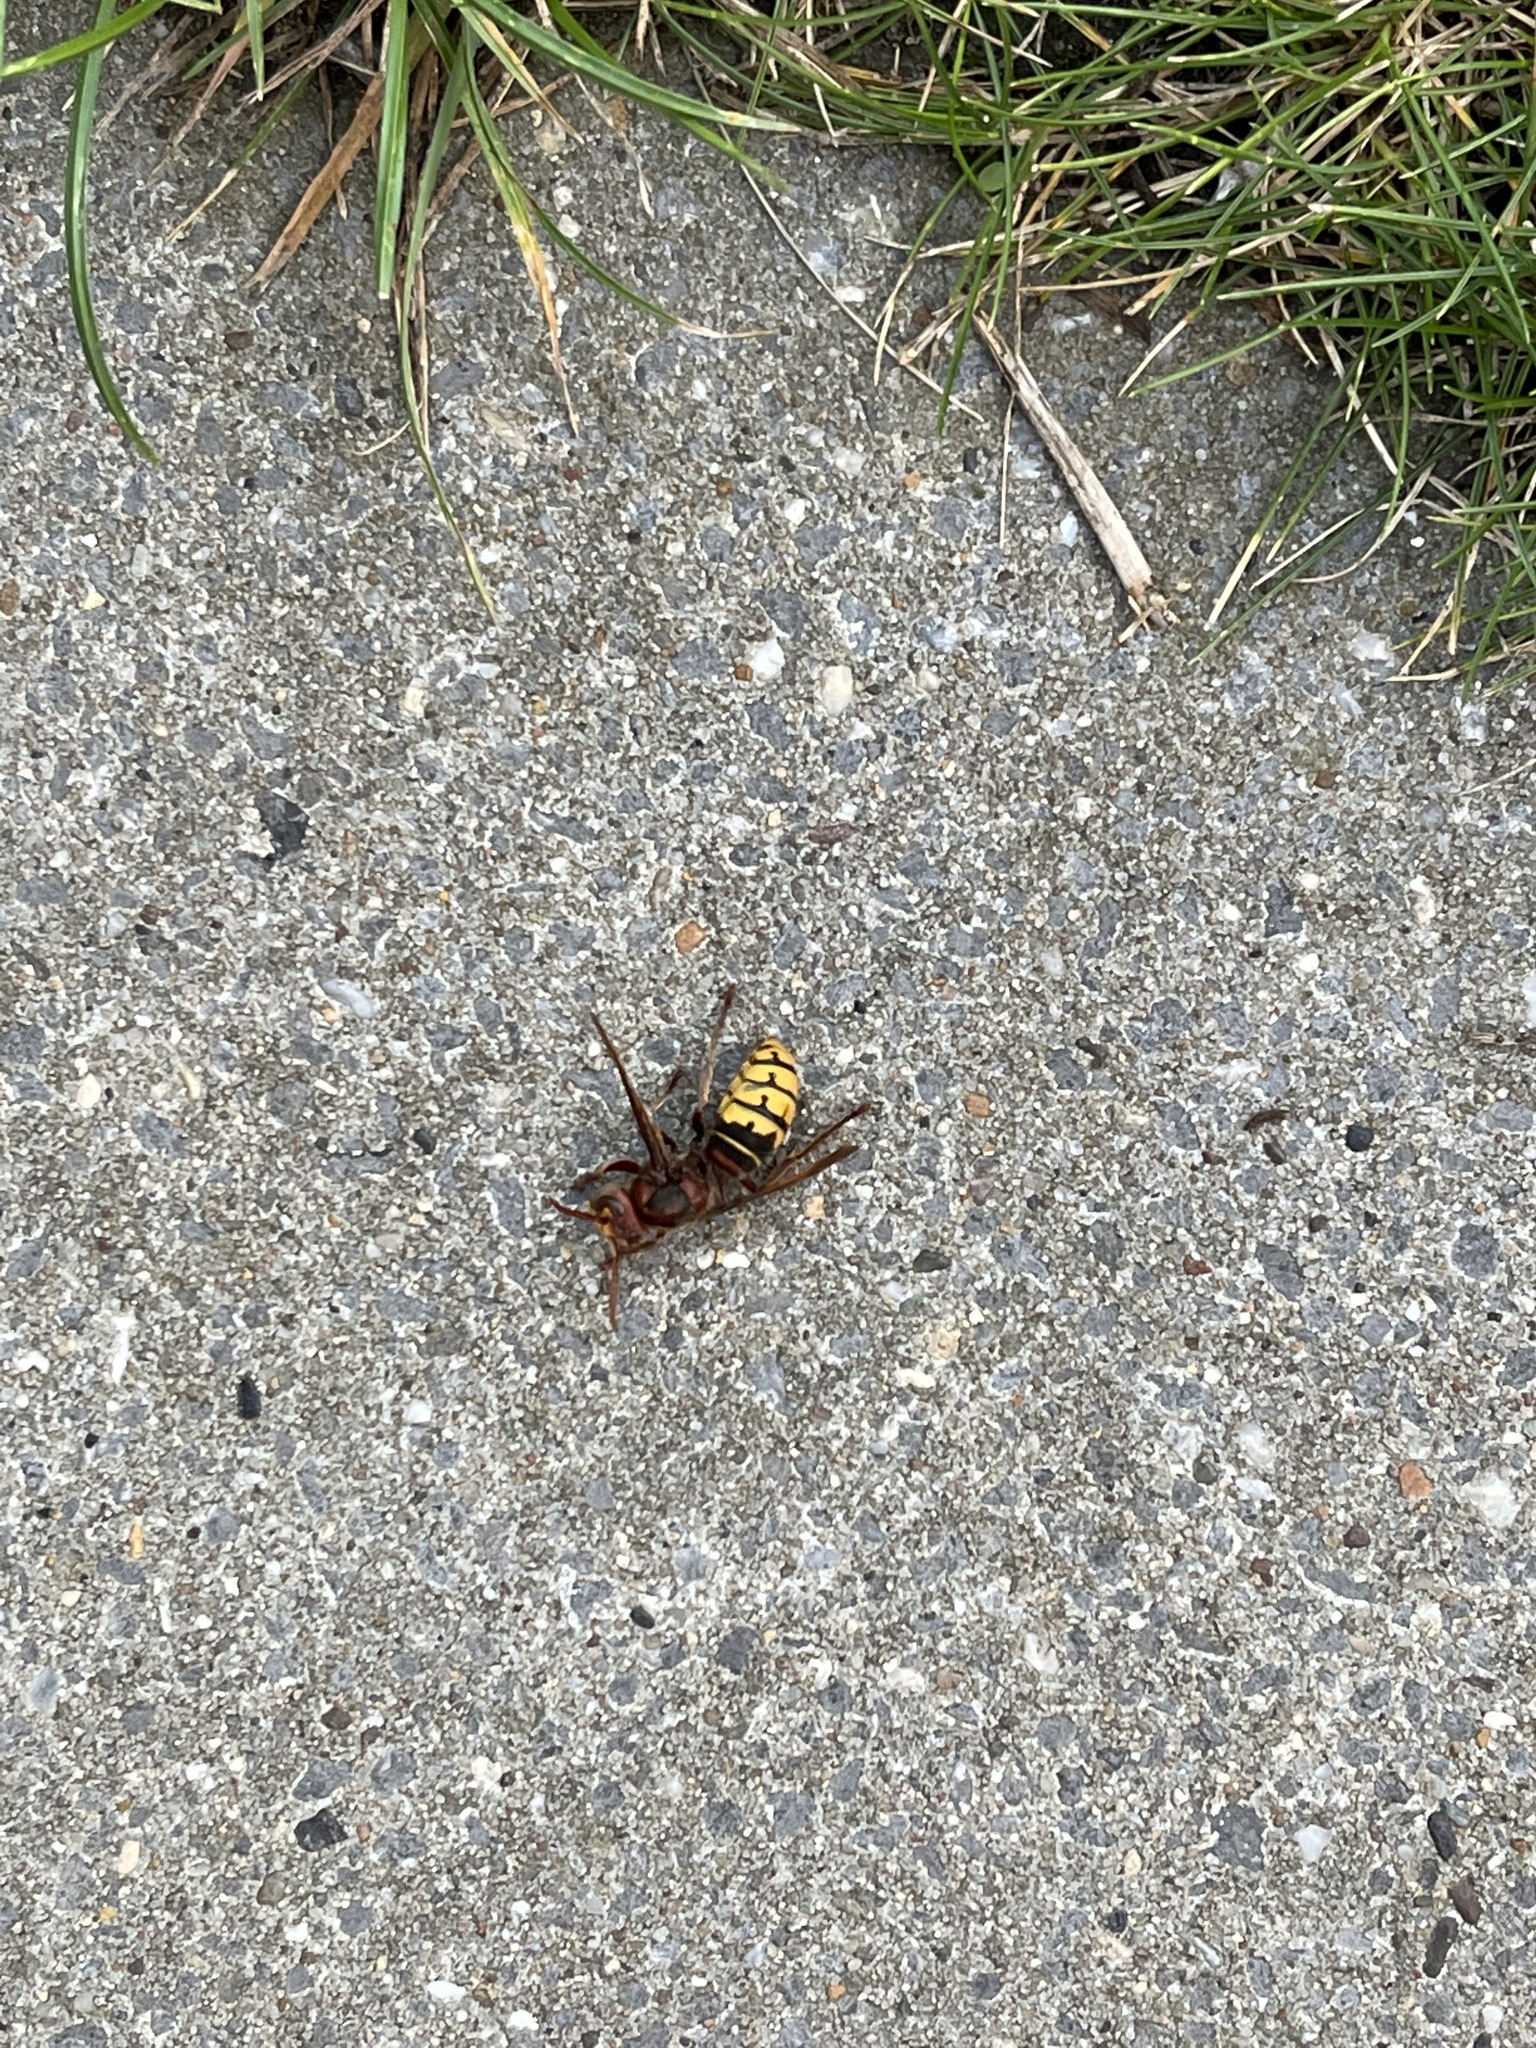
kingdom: Animalia
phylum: Arthropoda
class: Insecta
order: Hymenoptera
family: Vespidae
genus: Vespa
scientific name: Vespa crabro
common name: Hornet
